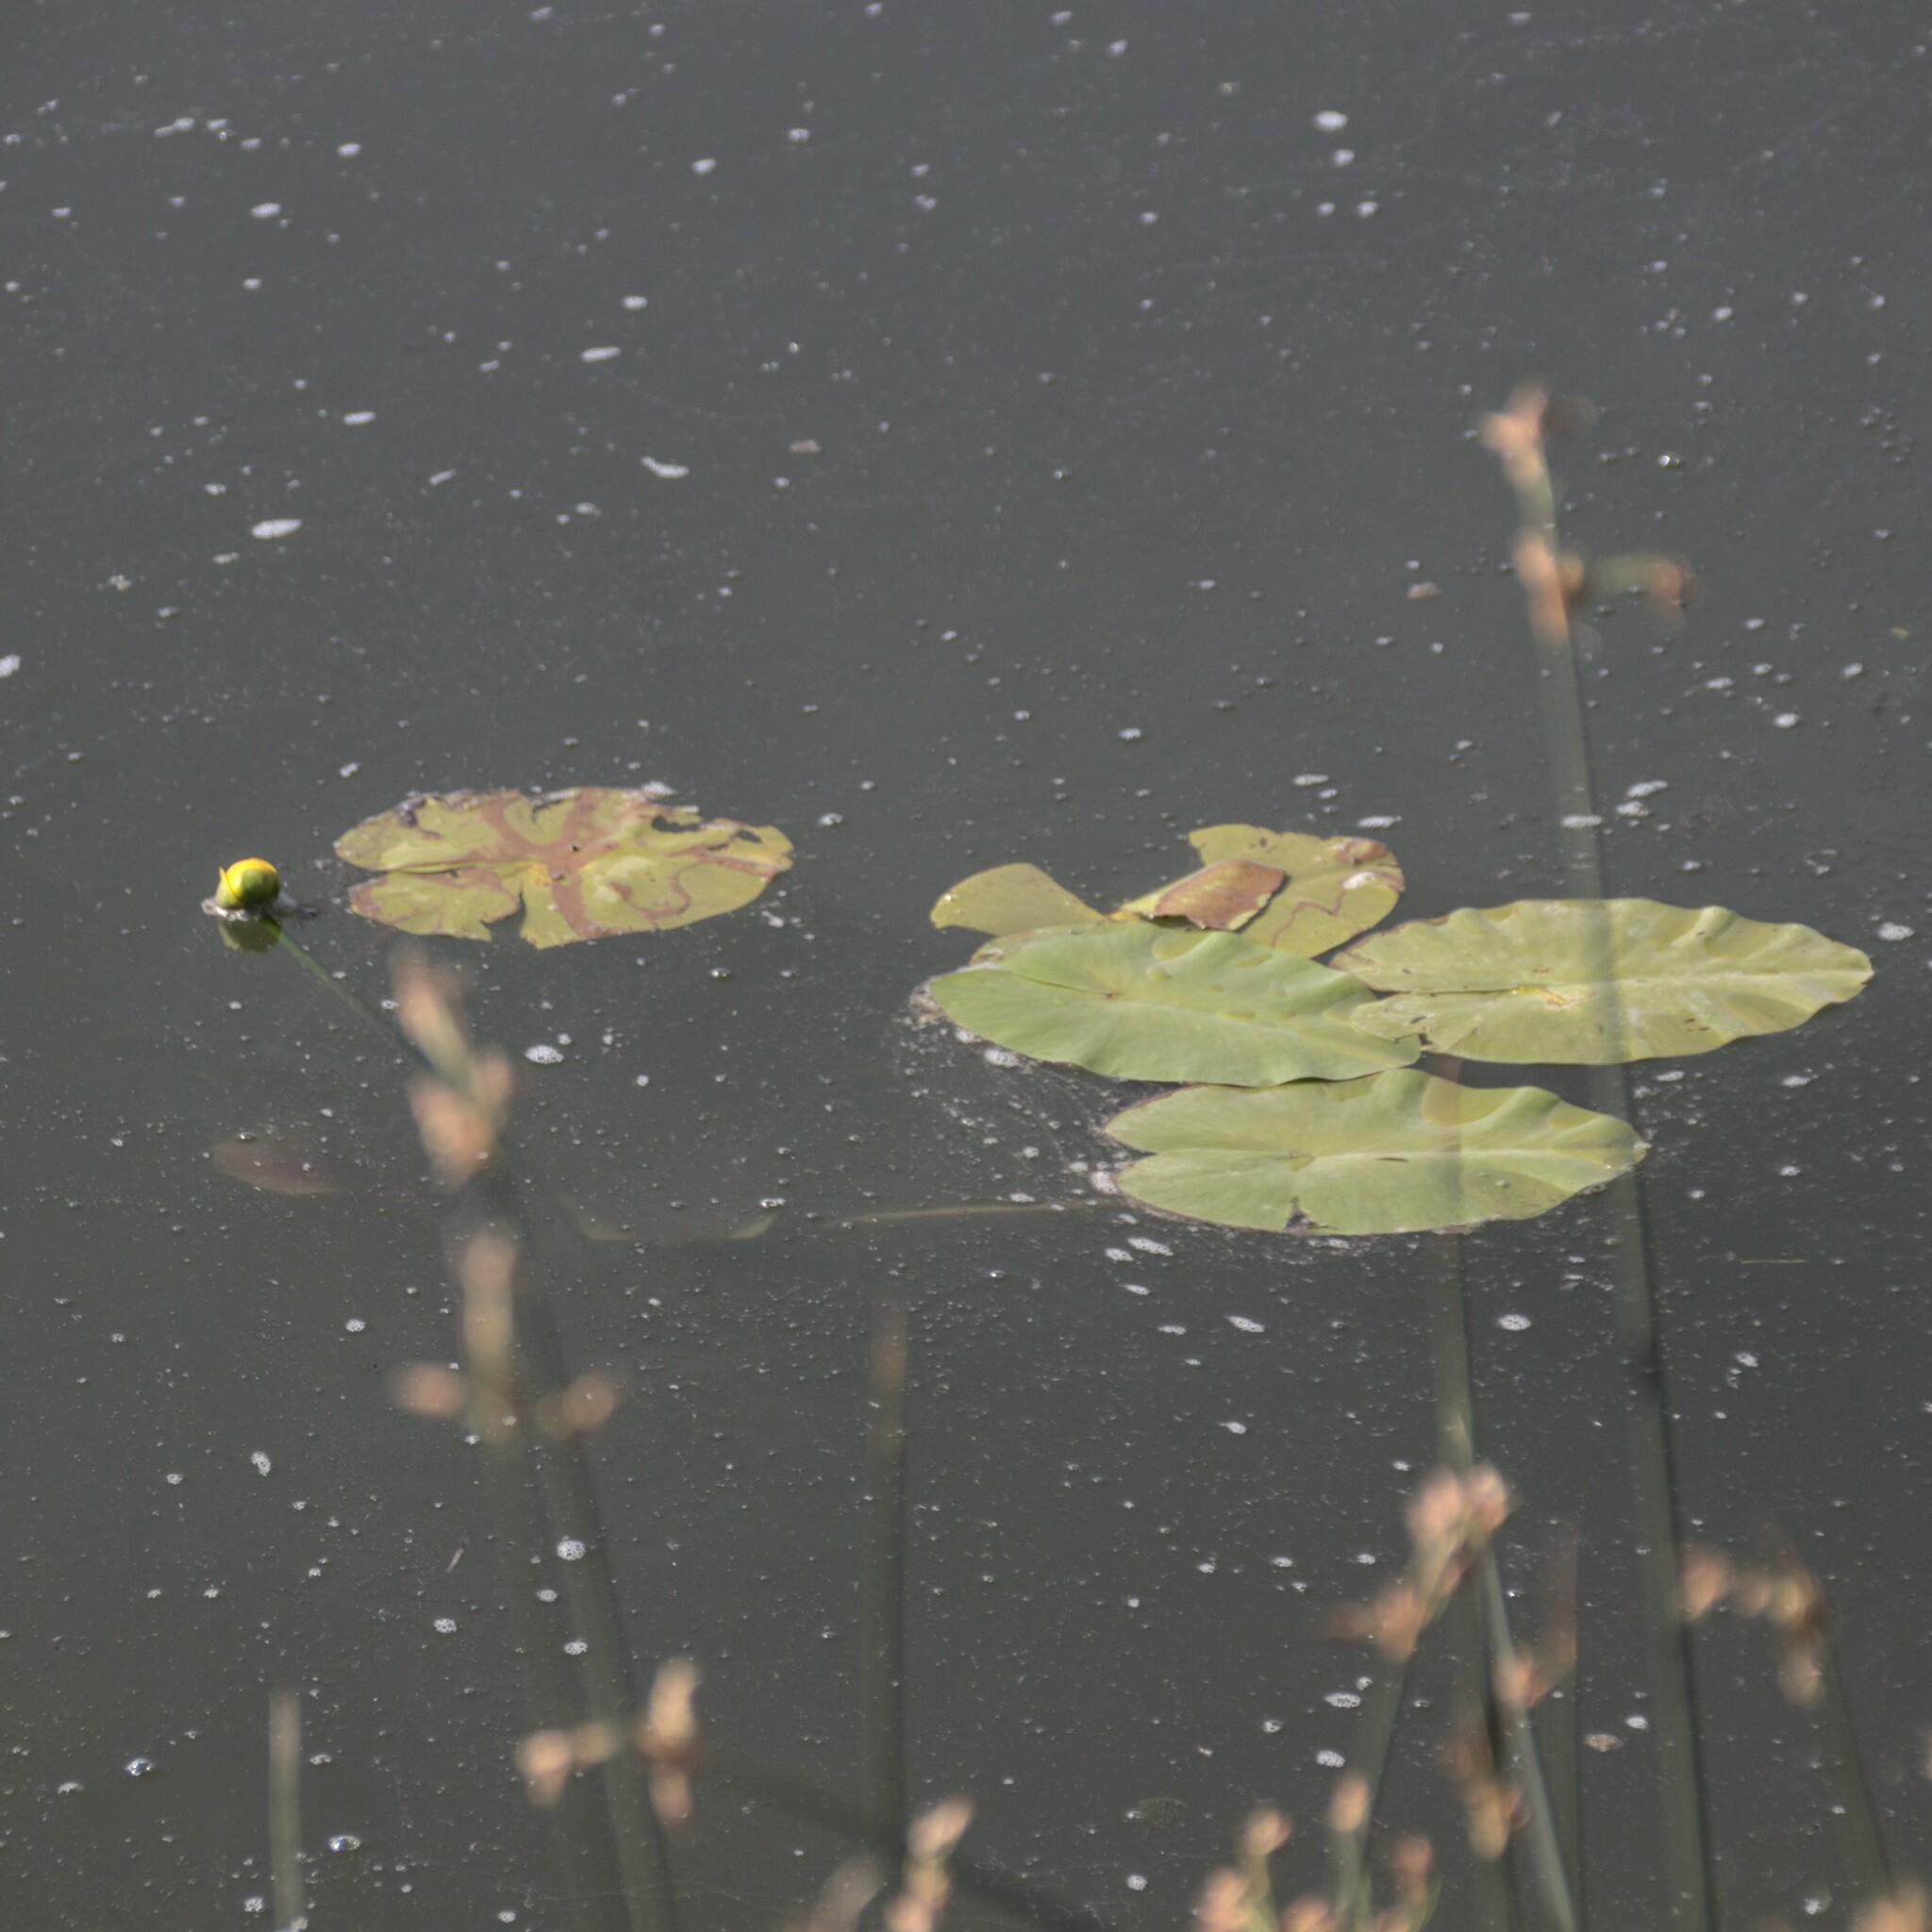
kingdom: Plantae
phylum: Tracheophyta
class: Magnoliopsida
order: Nymphaeales
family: Nymphaeaceae
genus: Nuphar
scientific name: Nuphar lutea
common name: Yellow water-lily
